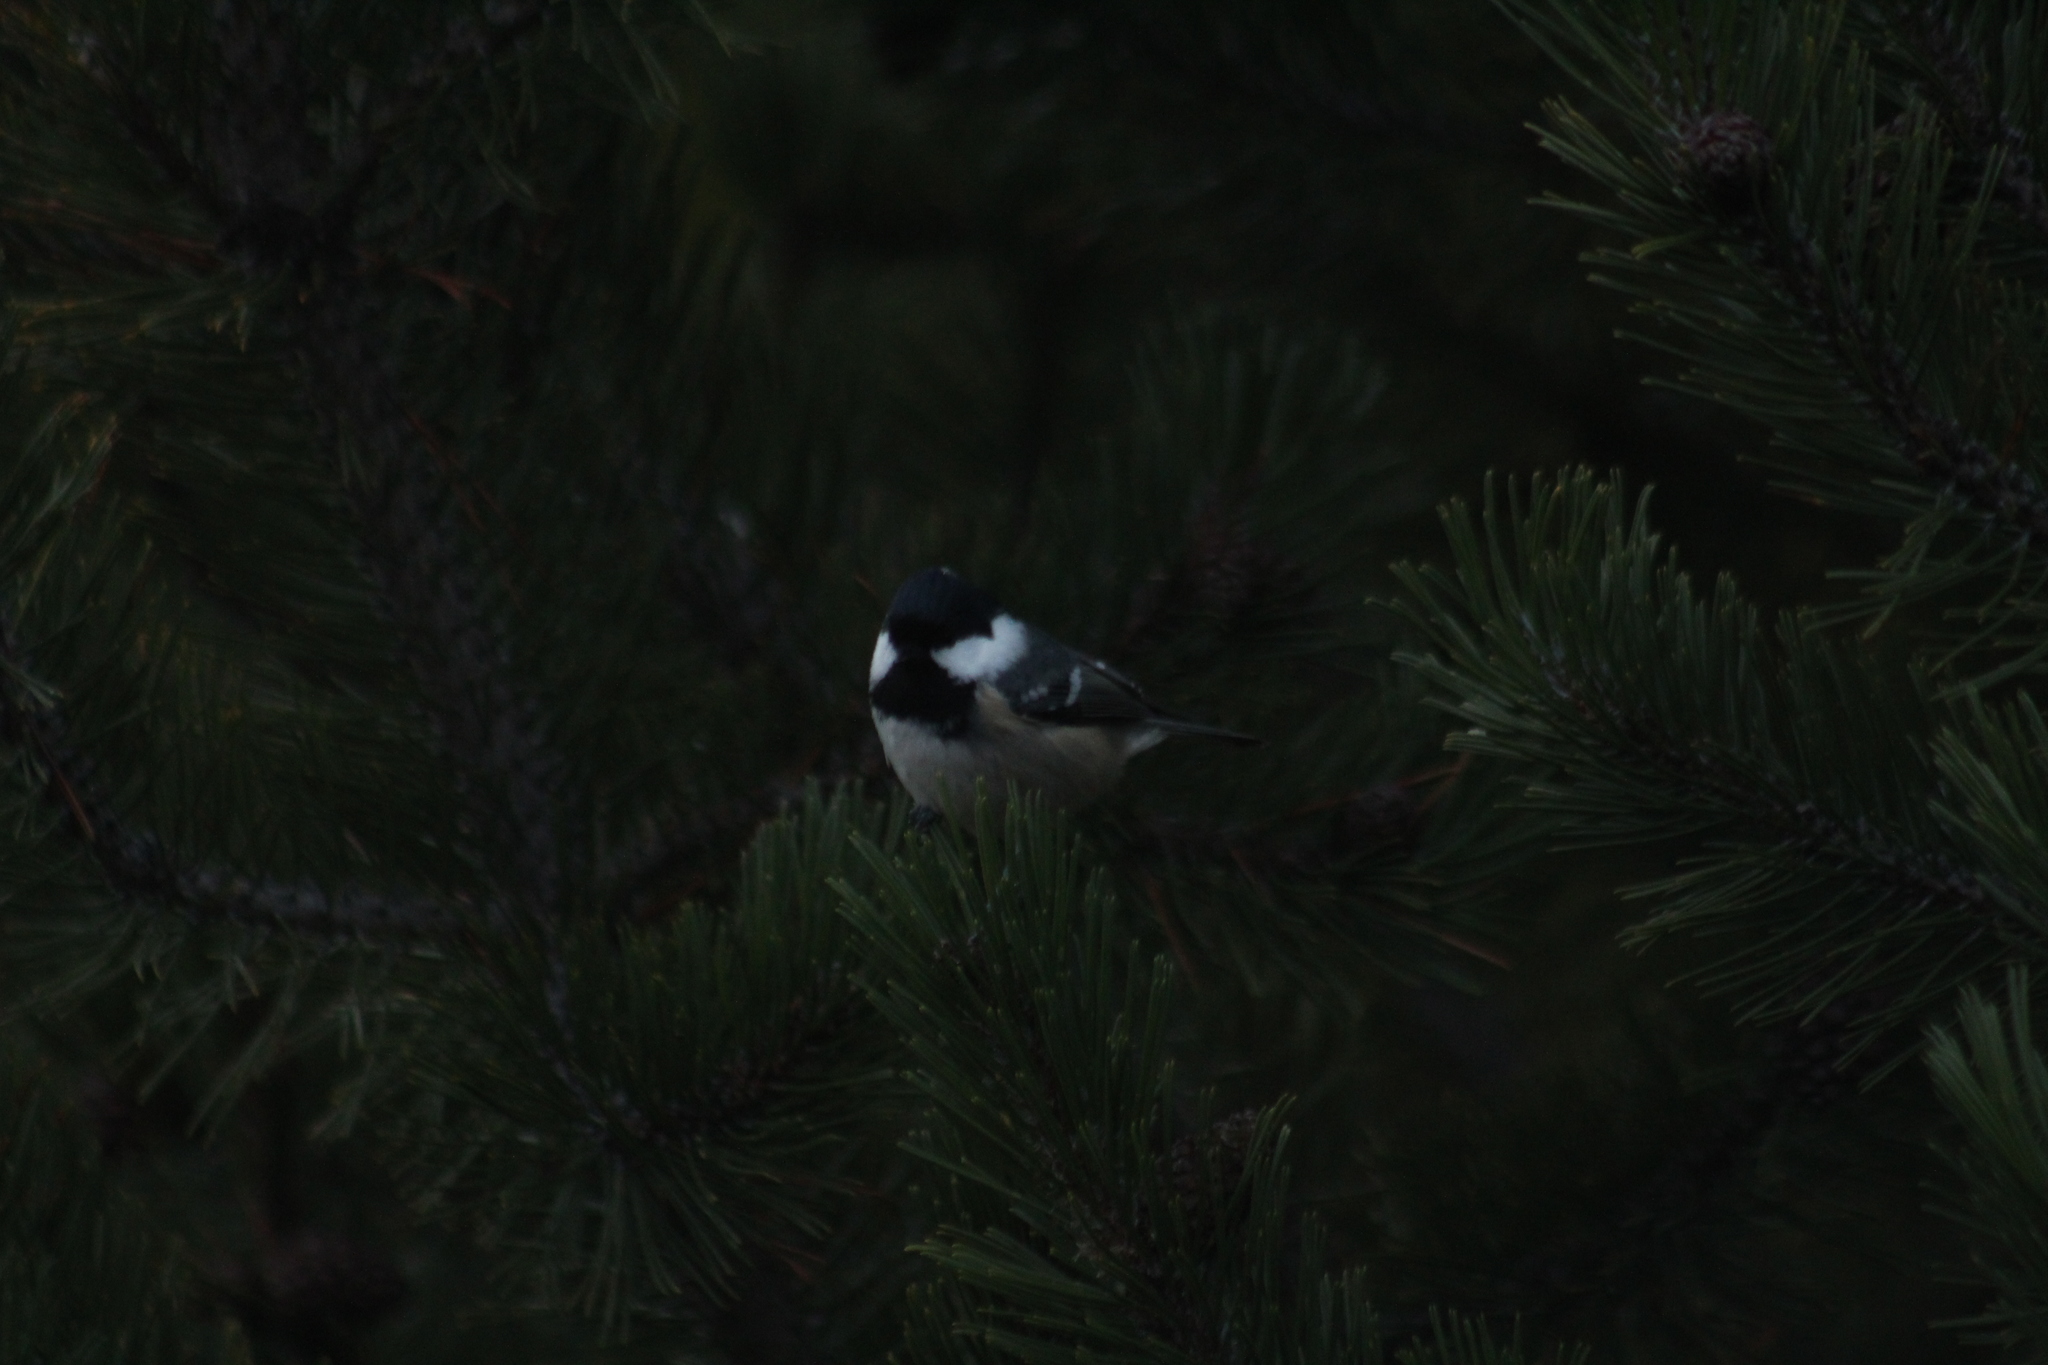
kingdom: Animalia
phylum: Chordata
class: Aves
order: Passeriformes
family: Paridae
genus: Periparus
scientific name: Periparus ater
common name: Coal tit
